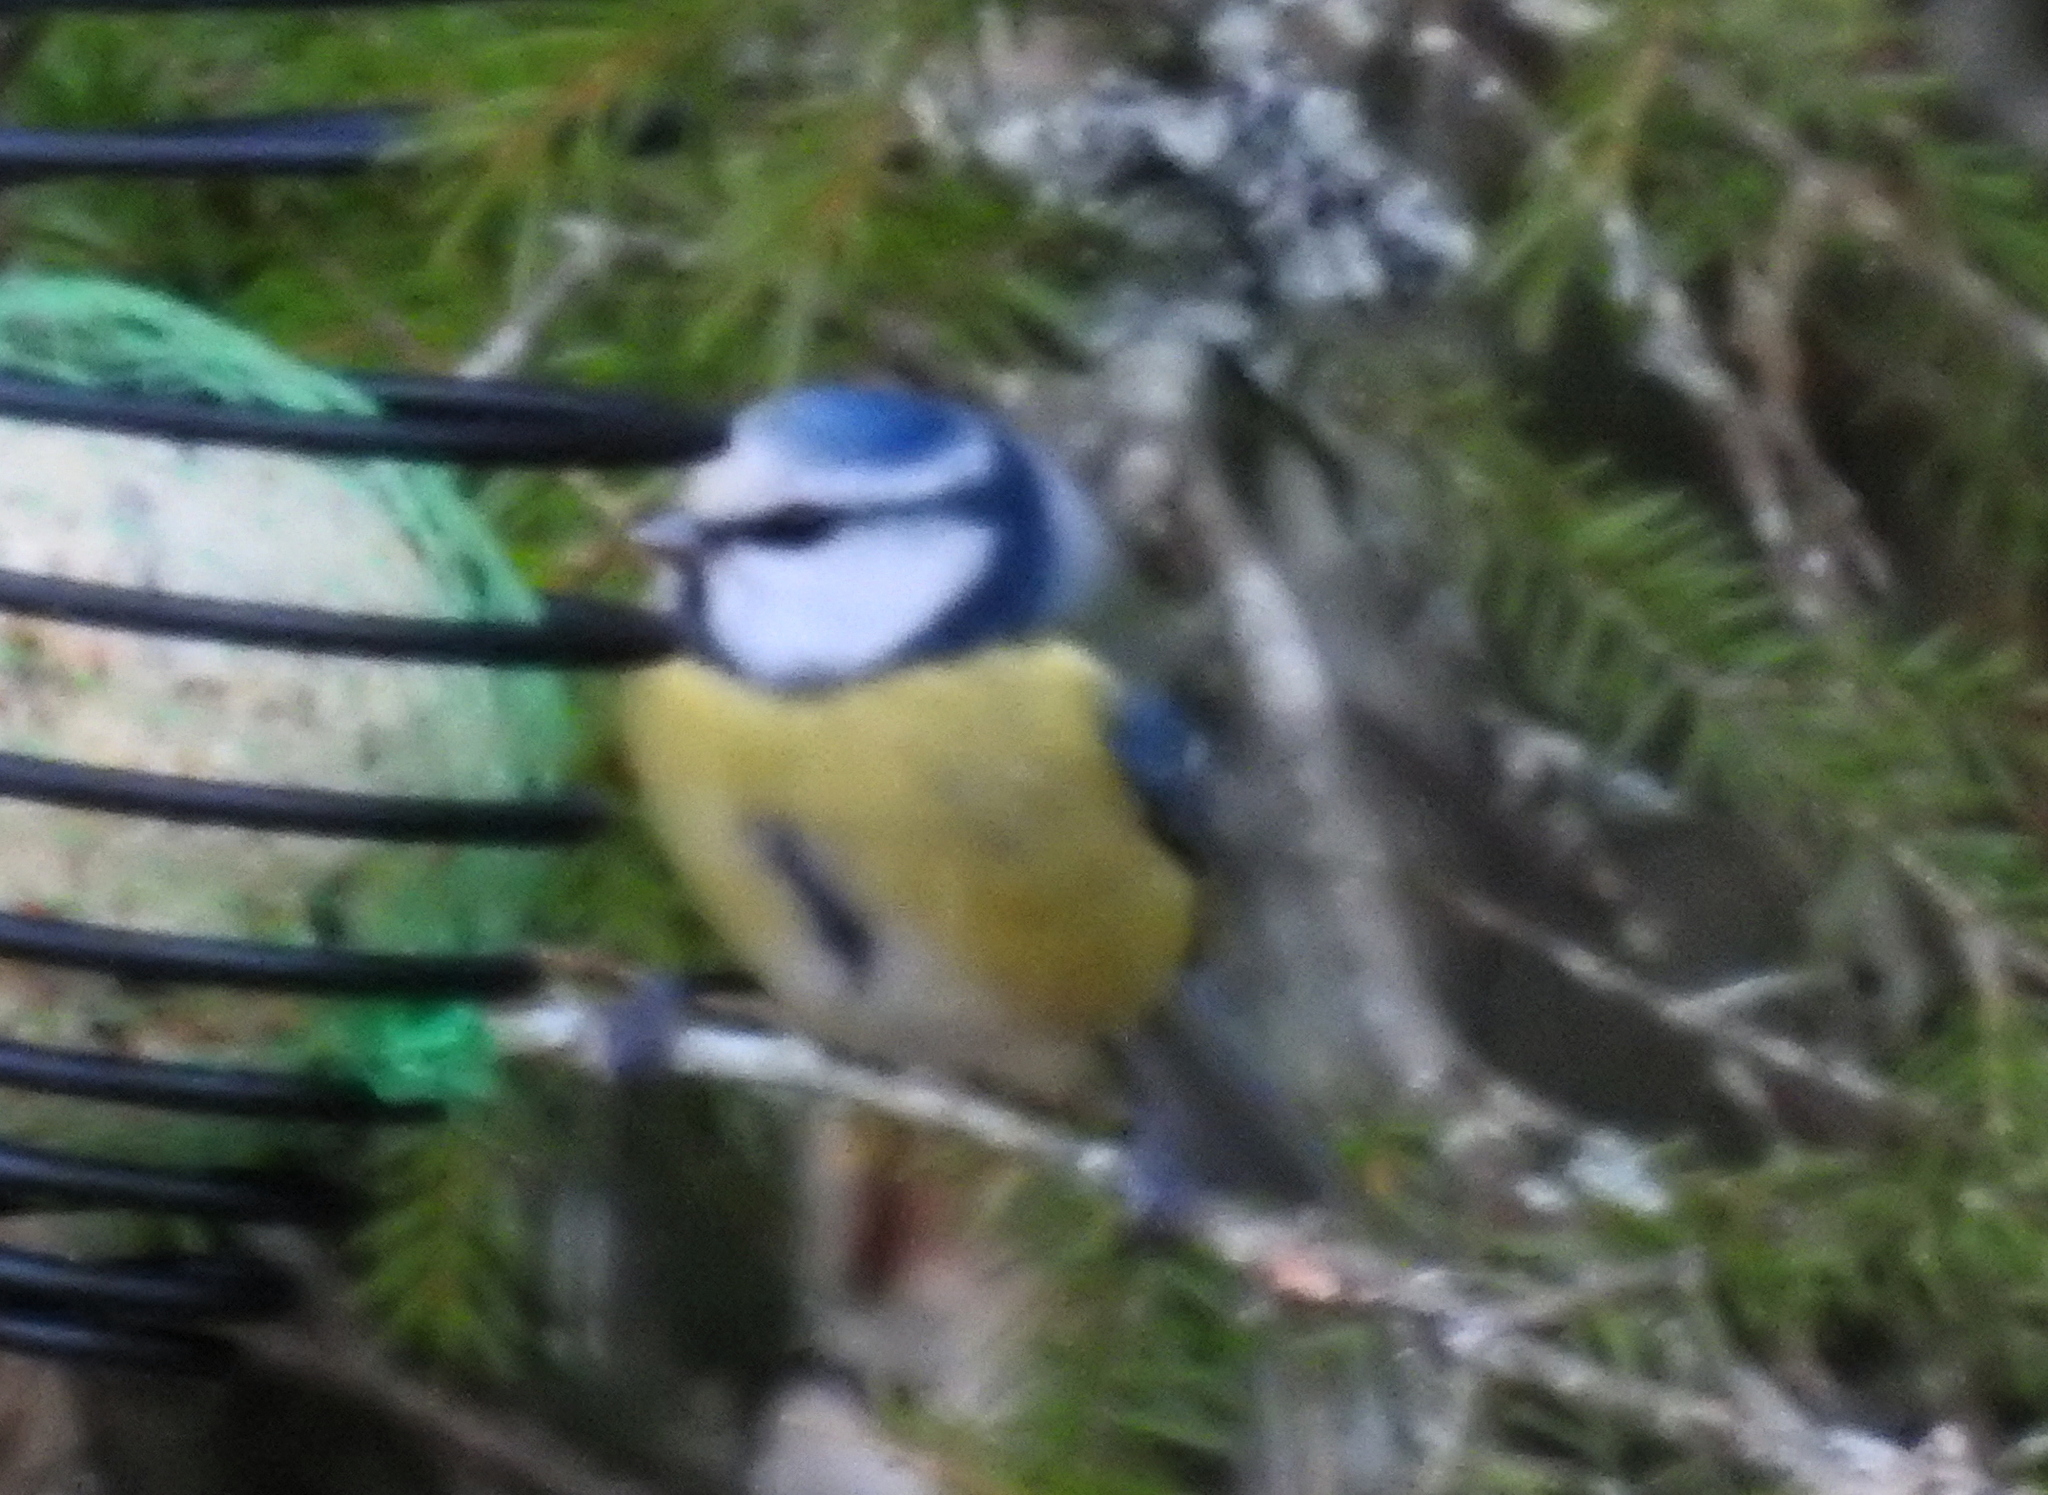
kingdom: Animalia
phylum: Chordata
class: Aves
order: Passeriformes
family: Paridae
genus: Cyanistes
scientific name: Cyanistes caeruleus
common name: Eurasian blue tit
